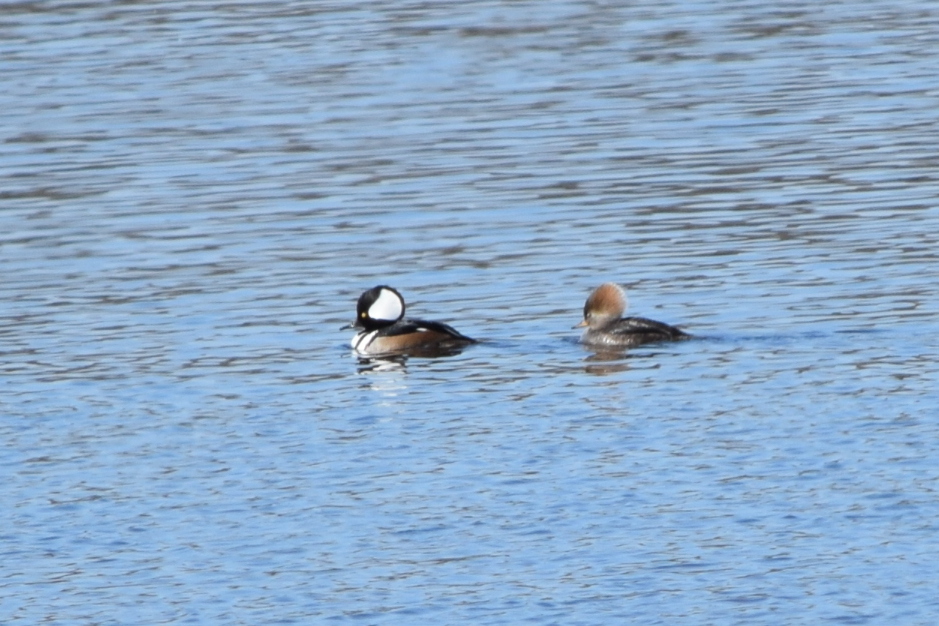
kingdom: Animalia
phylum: Chordata
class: Aves
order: Anseriformes
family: Anatidae
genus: Lophodytes
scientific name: Lophodytes cucullatus
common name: Hooded merganser
